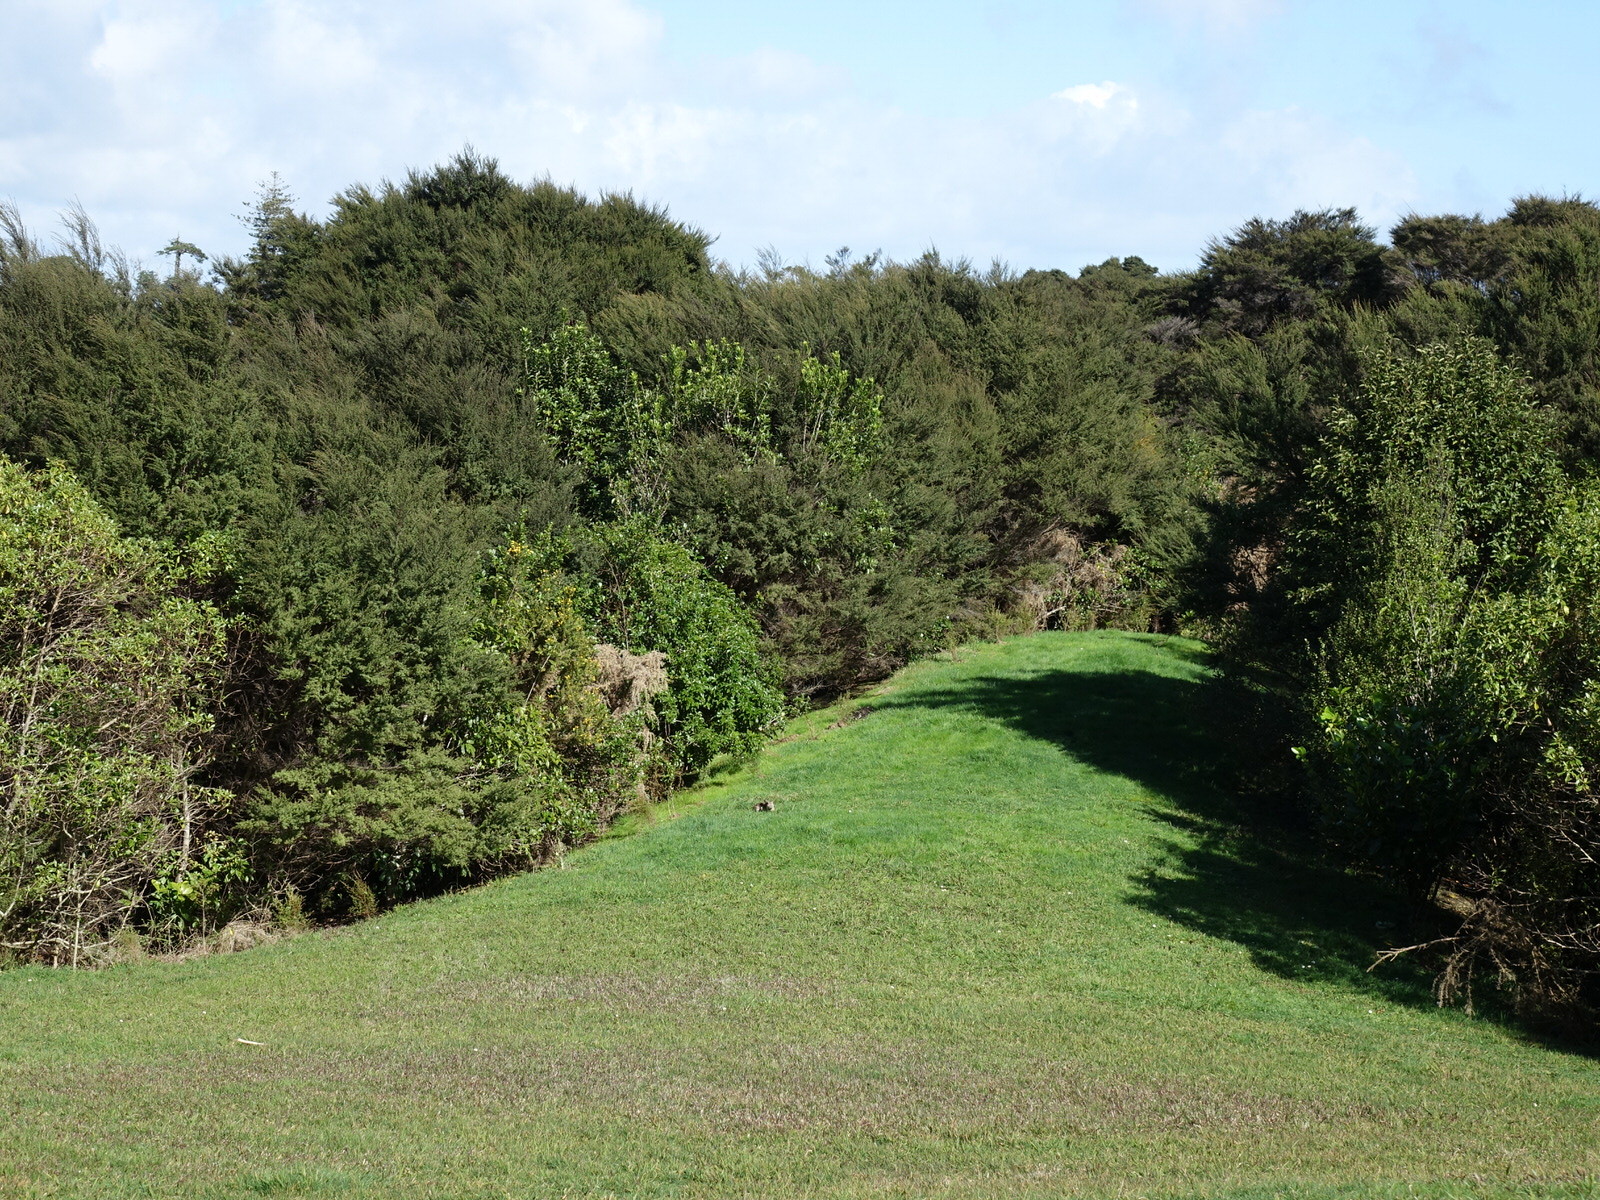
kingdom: Animalia
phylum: Chordata
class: Mammalia
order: Lagomorpha
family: Leporidae
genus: Oryctolagus
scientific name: Oryctolagus cuniculus
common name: European rabbit
